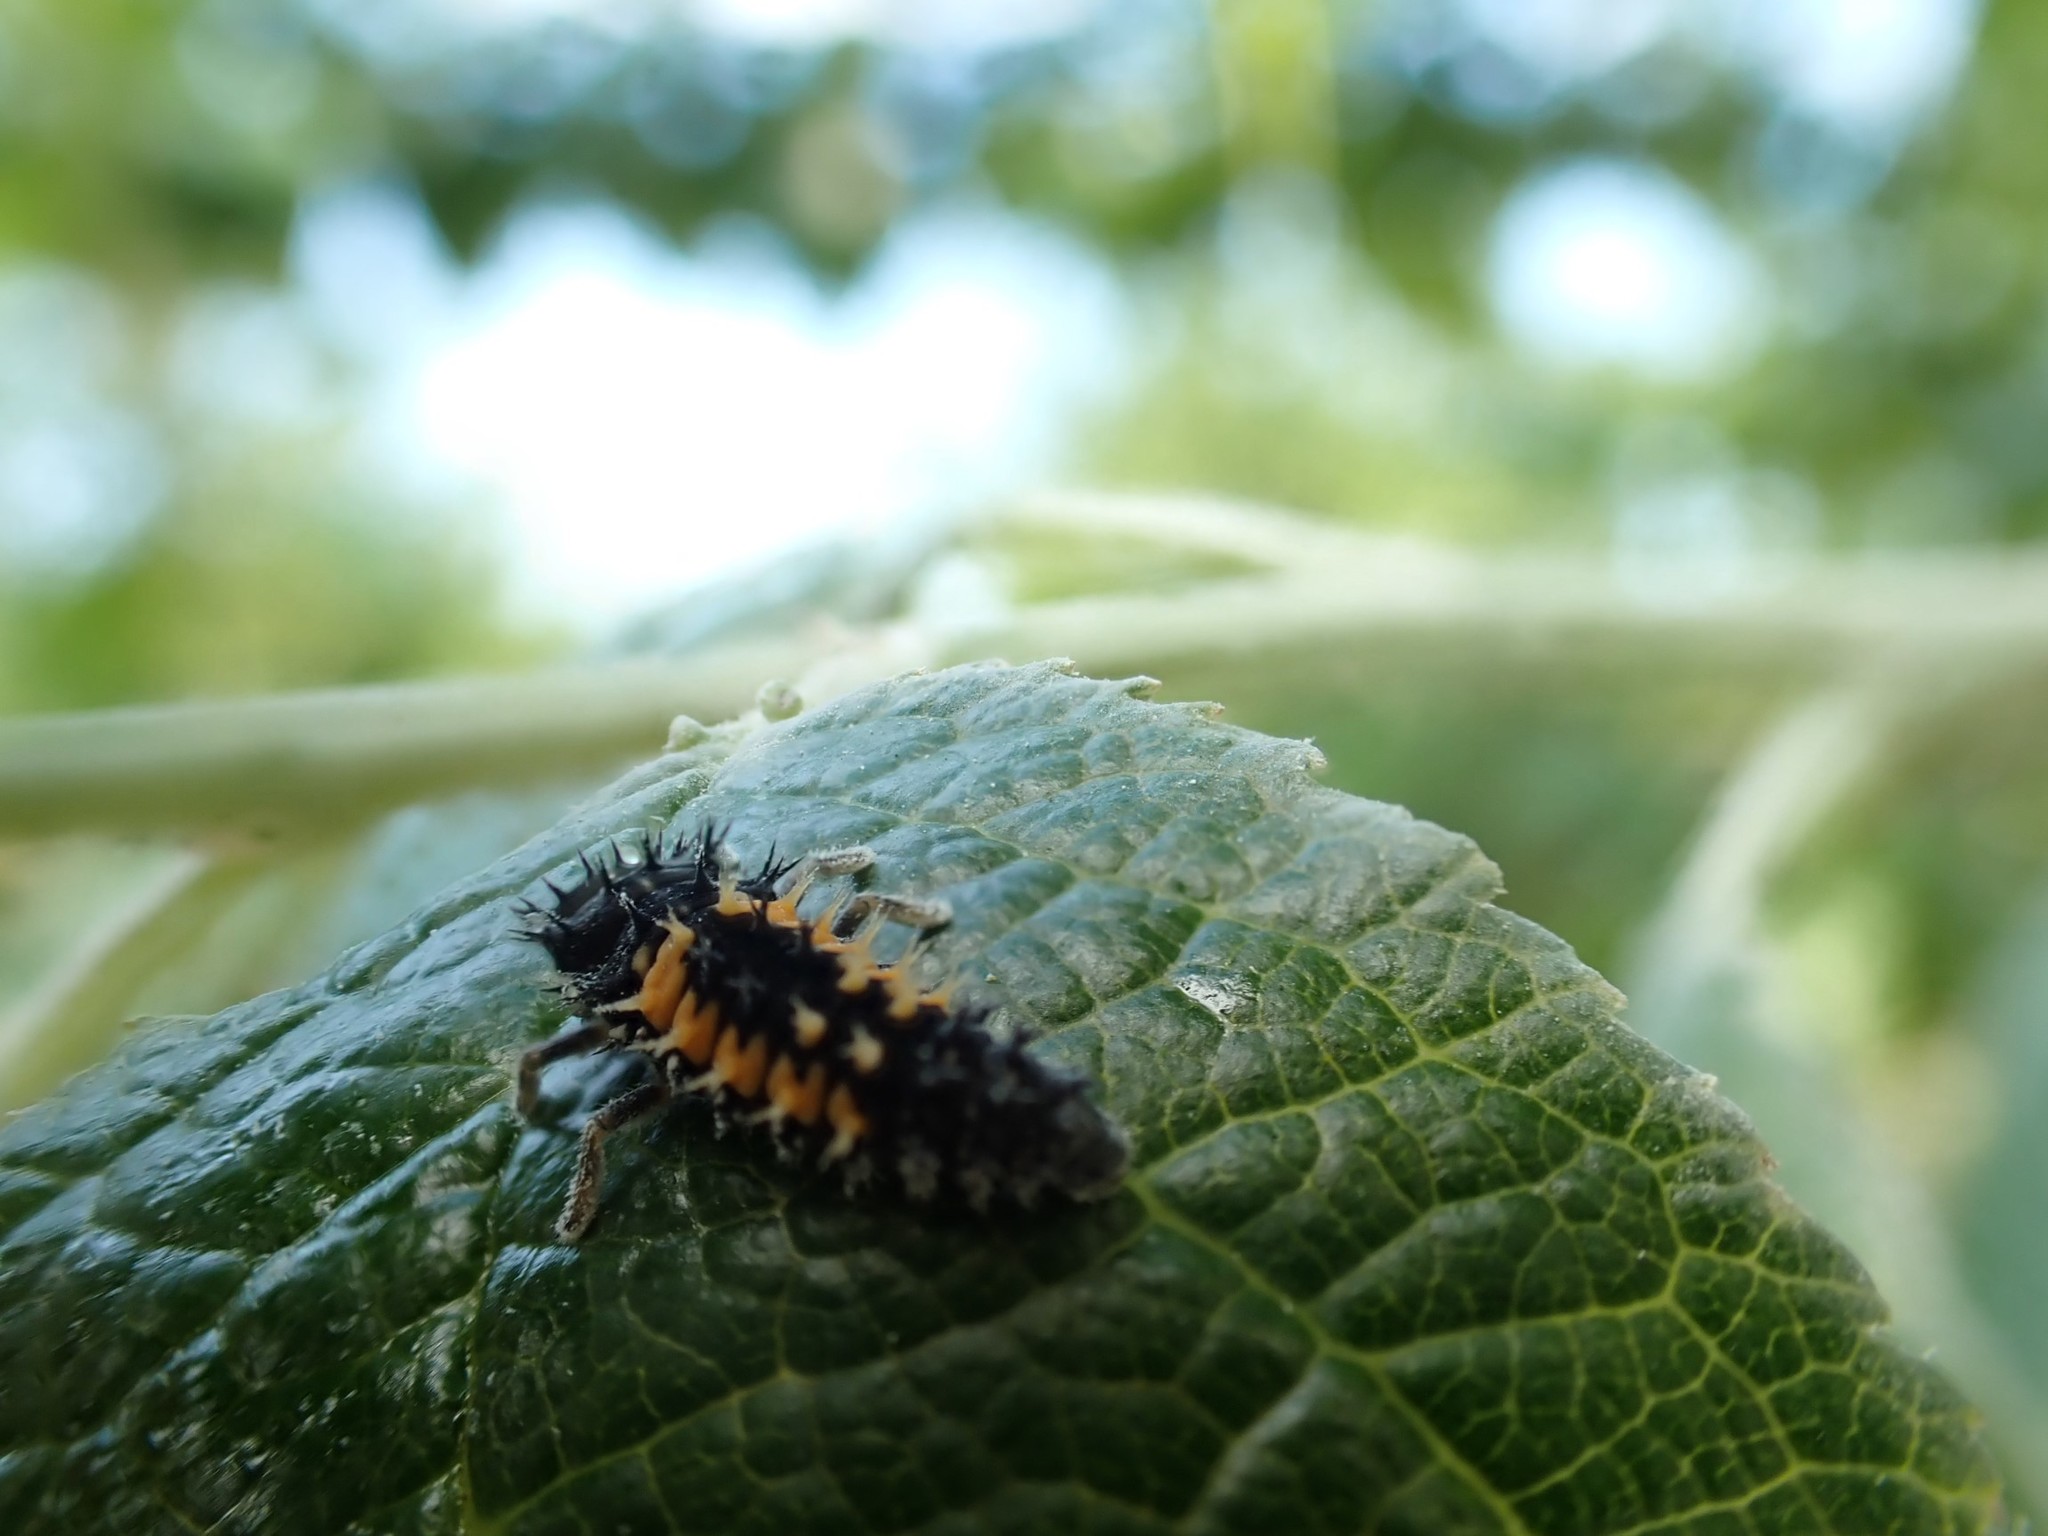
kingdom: Animalia
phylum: Arthropoda
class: Insecta
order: Coleoptera
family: Coccinellidae
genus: Harmonia
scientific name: Harmonia axyridis
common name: Harlequin ladybird
